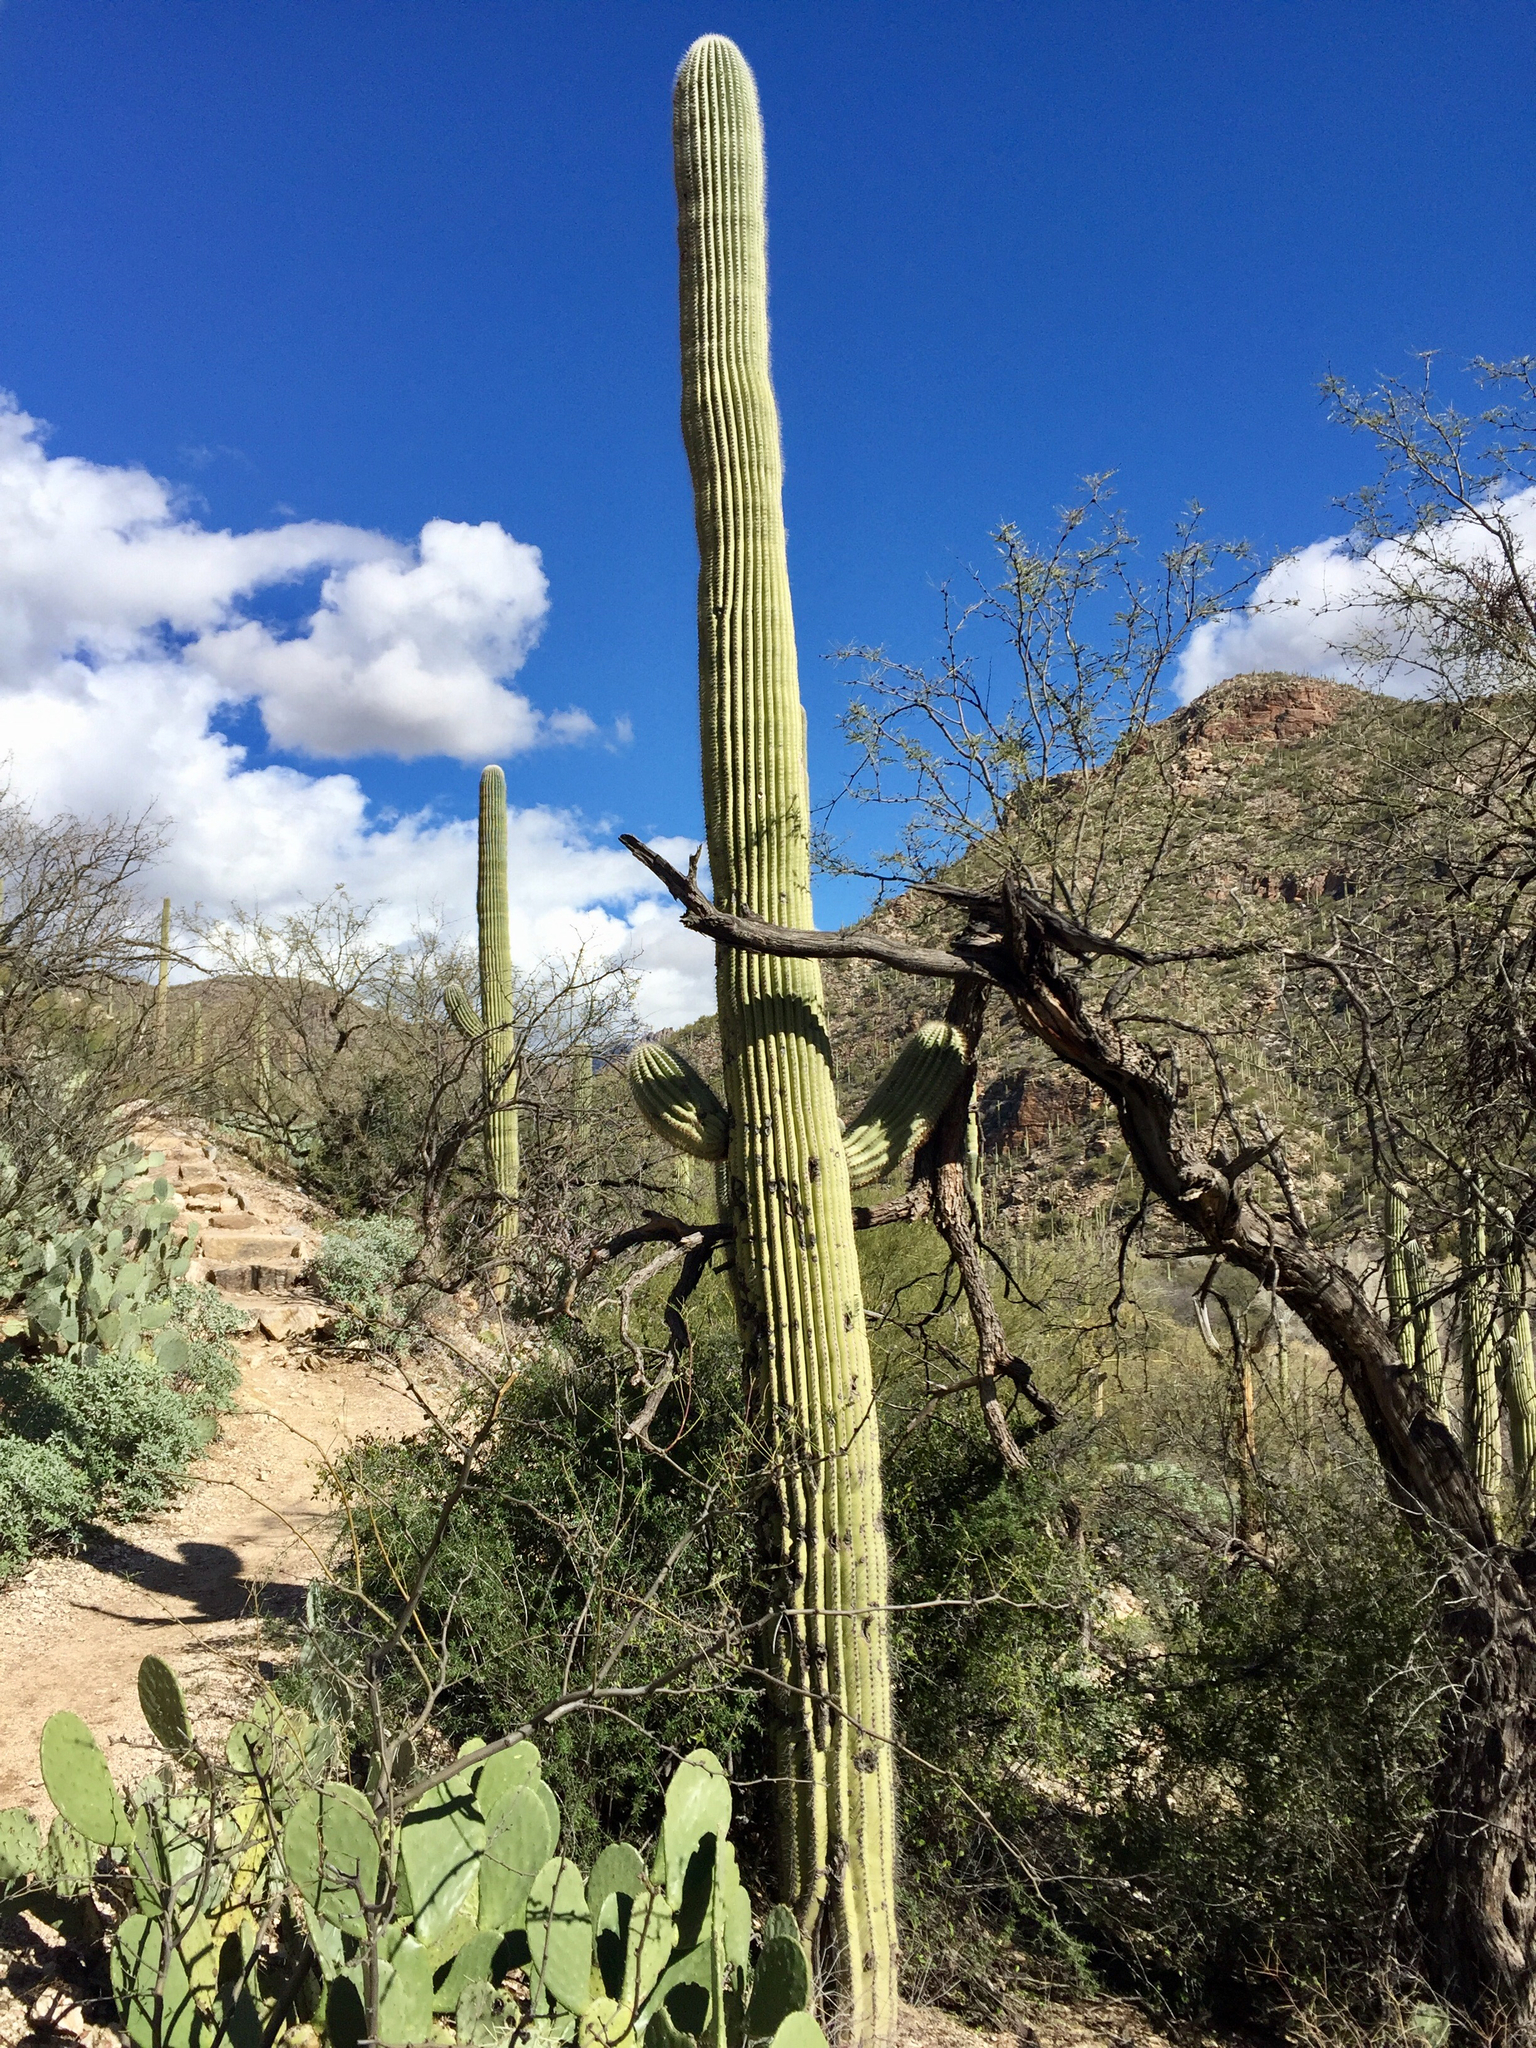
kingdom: Plantae
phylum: Tracheophyta
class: Magnoliopsida
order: Caryophyllales
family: Cactaceae
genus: Carnegiea
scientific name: Carnegiea gigantea
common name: Saguaro
